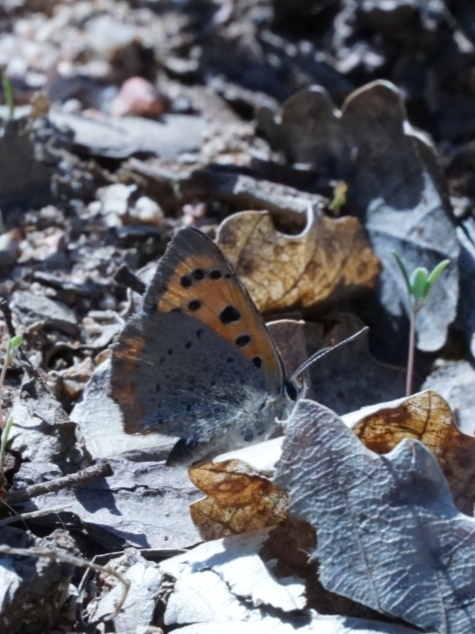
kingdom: Animalia
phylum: Arthropoda
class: Insecta
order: Lepidoptera
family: Lycaenidae
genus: Lycaena
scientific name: Lycaena phlaeas
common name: Small copper
